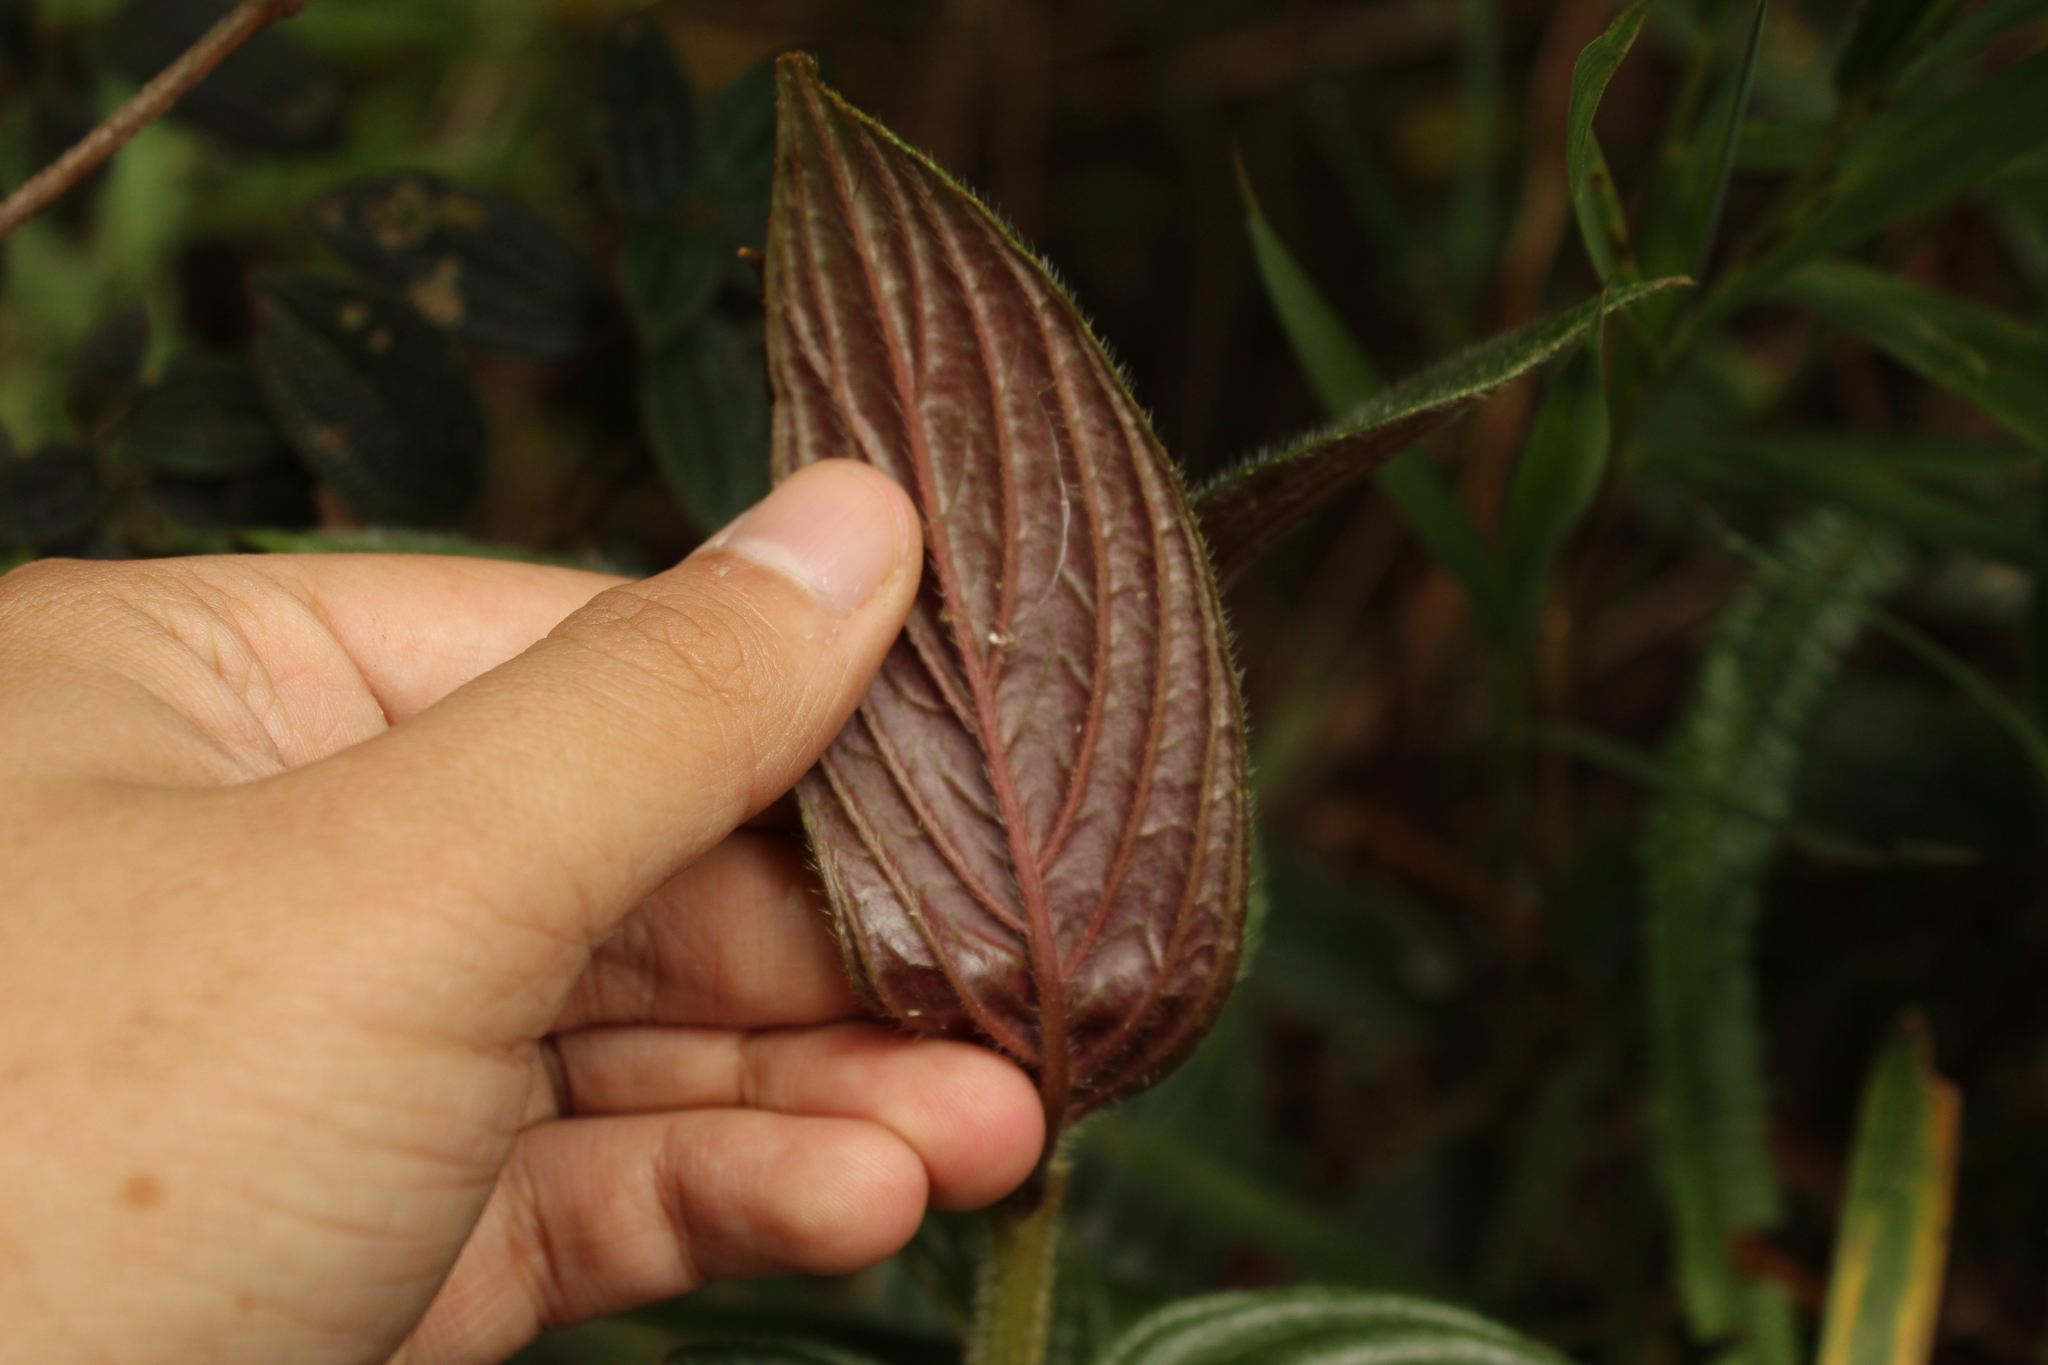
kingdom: Plantae
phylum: Tracheophyta
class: Magnoliopsida
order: Lamiales
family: Gesneriaceae
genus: Columnea
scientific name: Columnea strigosa
